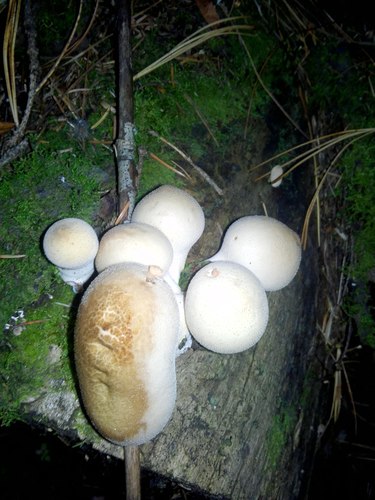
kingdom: Fungi
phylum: Basidiomycota
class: Agaricomycetes
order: Agaricales
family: Lycoperdaceae
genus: Apioperdon
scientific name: Apioperdon pyriforme
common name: Pear-shaped puffball
